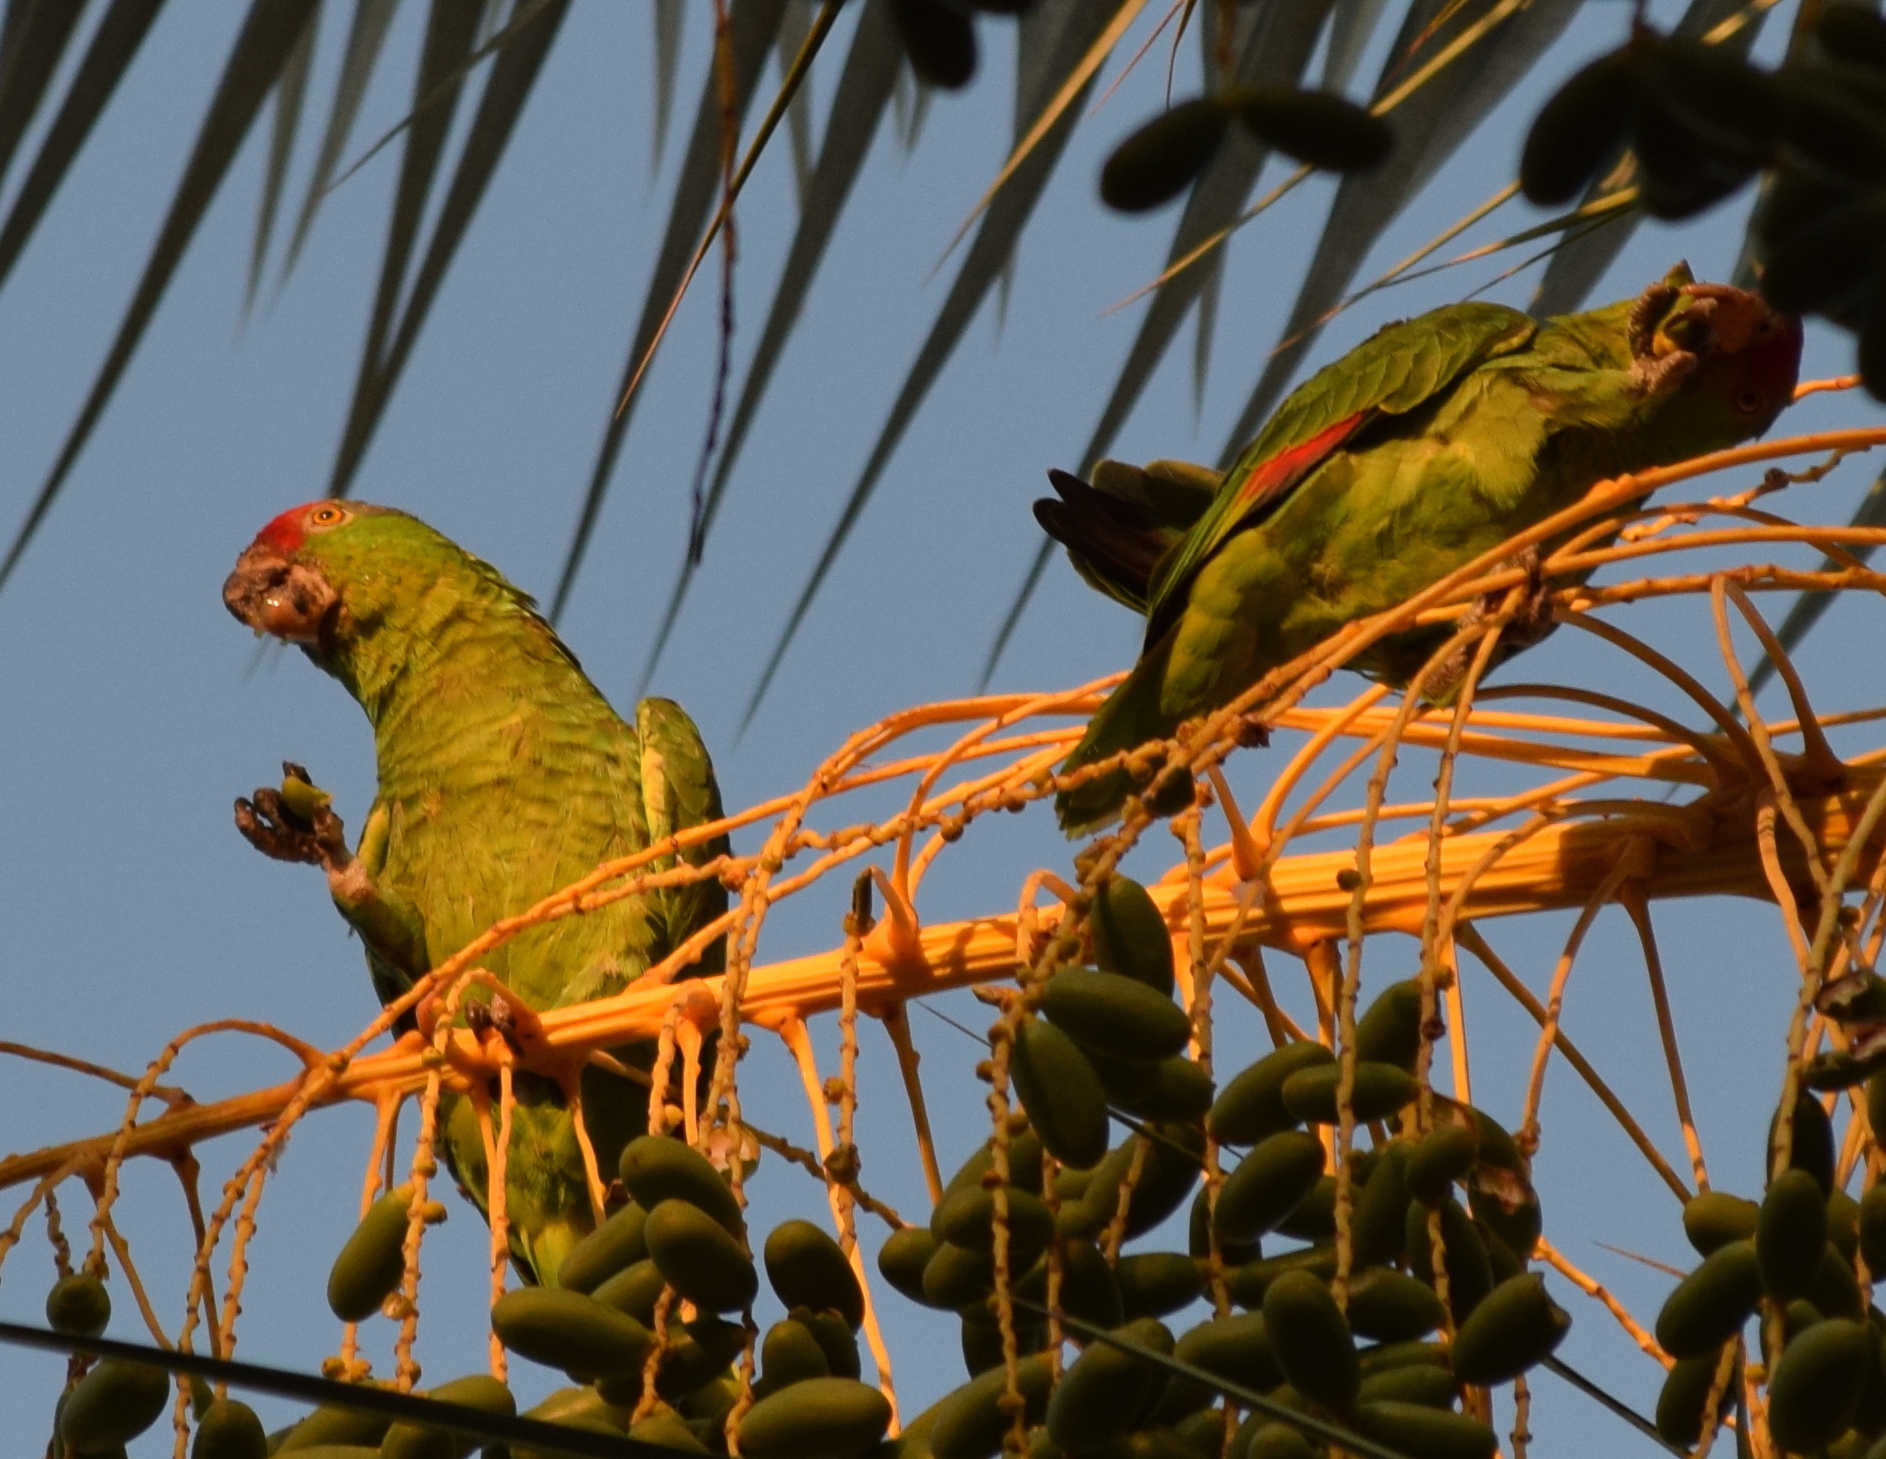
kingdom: Animalia
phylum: Chordata
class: Aves
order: Psittaciformes
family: Psittacidae
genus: Amazona
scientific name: Amazona viridigenalis
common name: Red-crowned amazon
